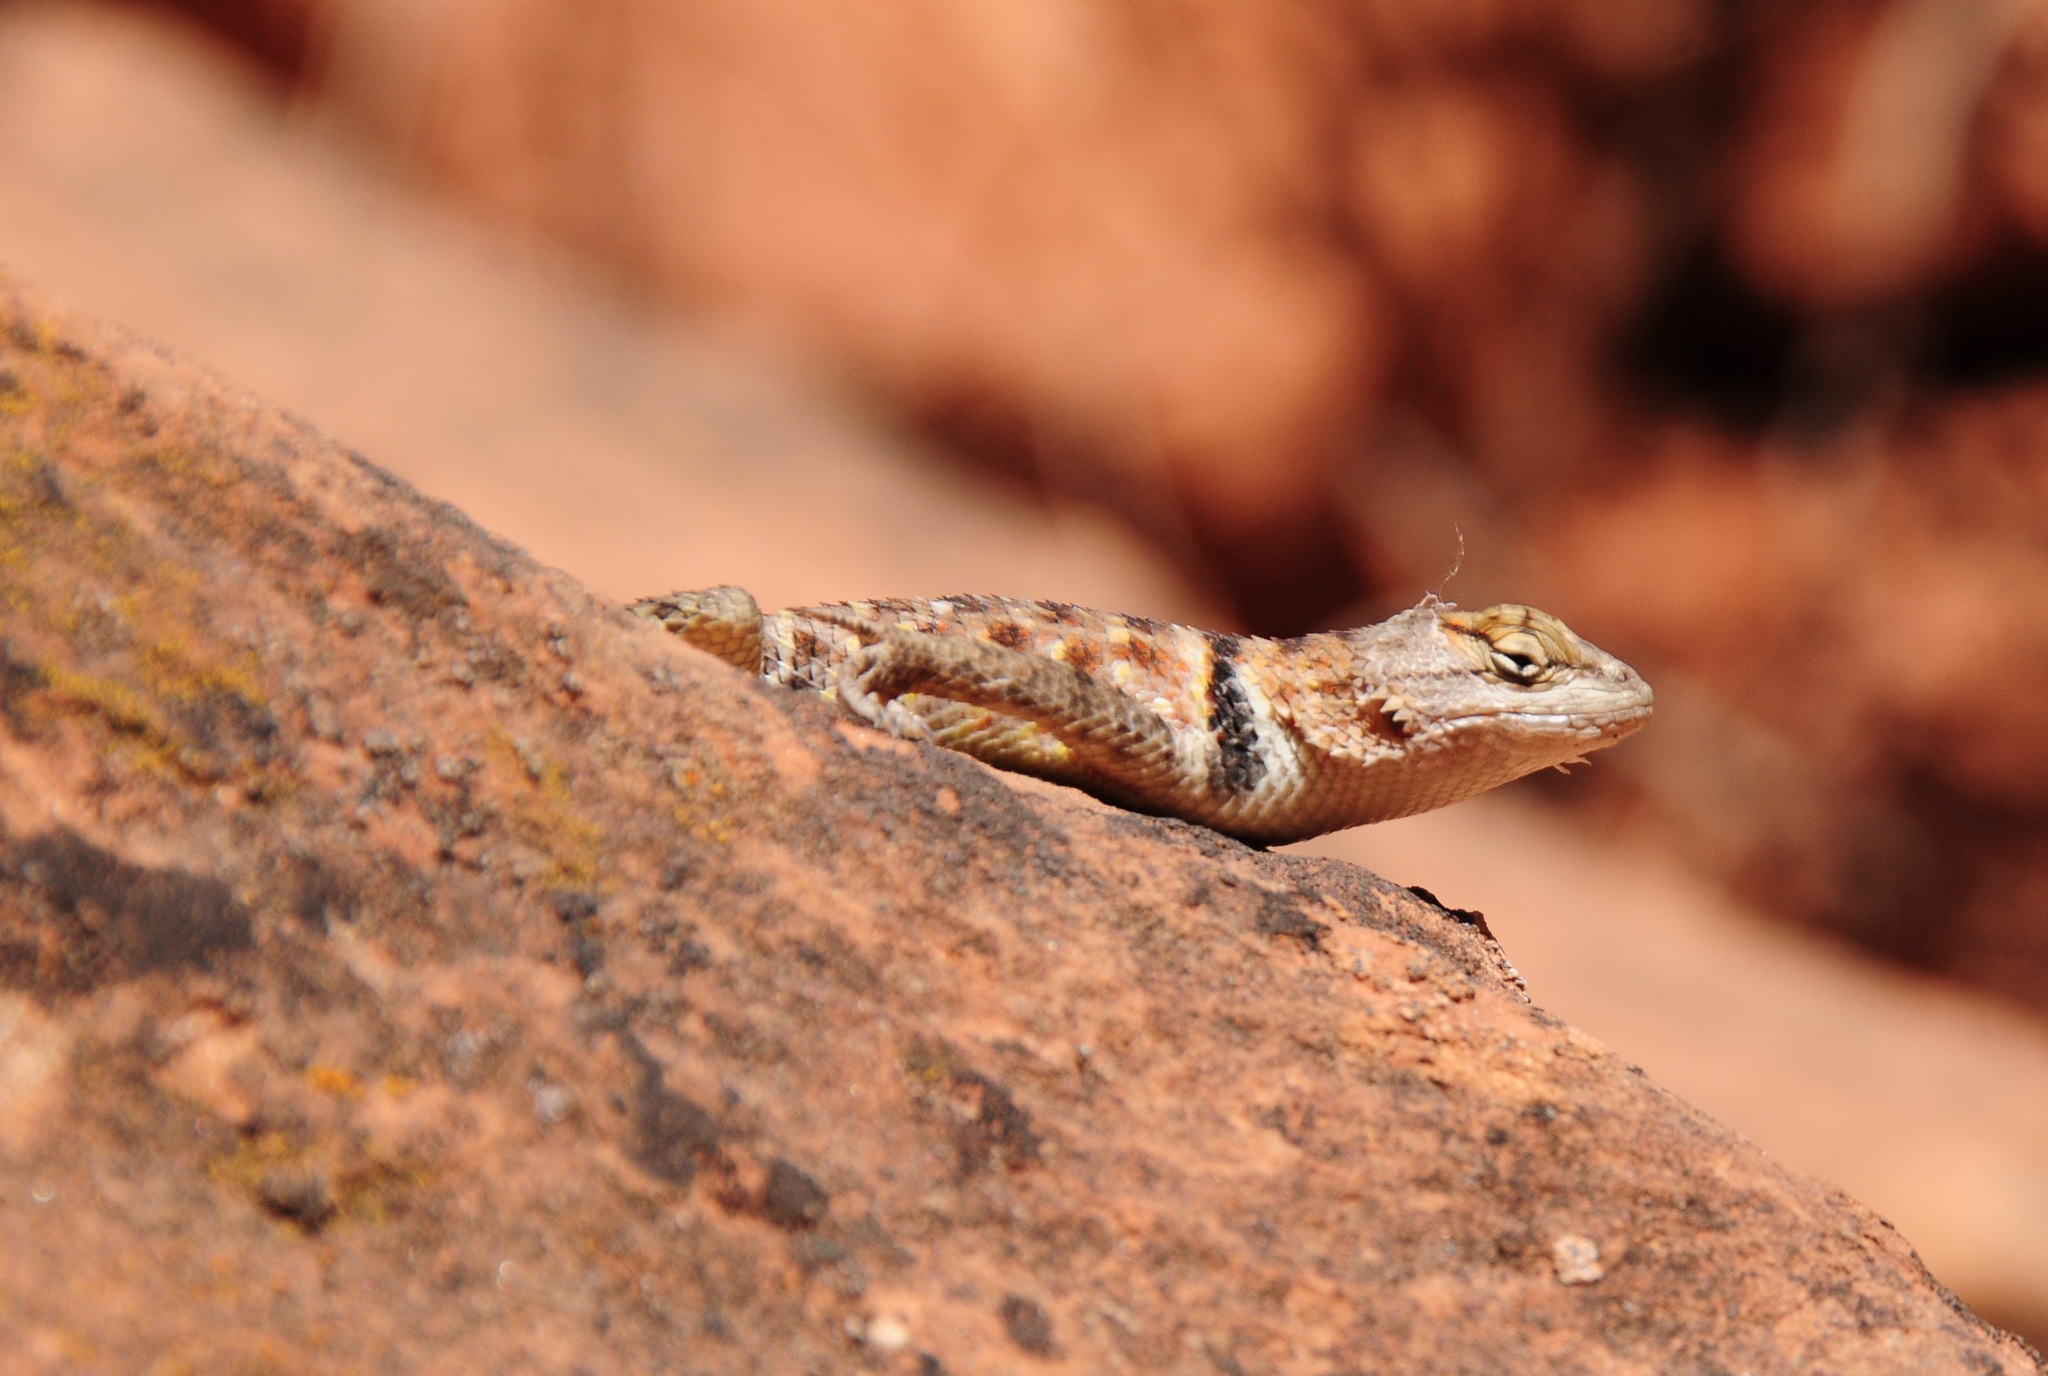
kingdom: Animalia
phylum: Chordata
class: Squamata
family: Phrynosomatidae
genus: Sceloporus
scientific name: Sceloporus uniformis
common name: Yellow-backed spiny lizard
